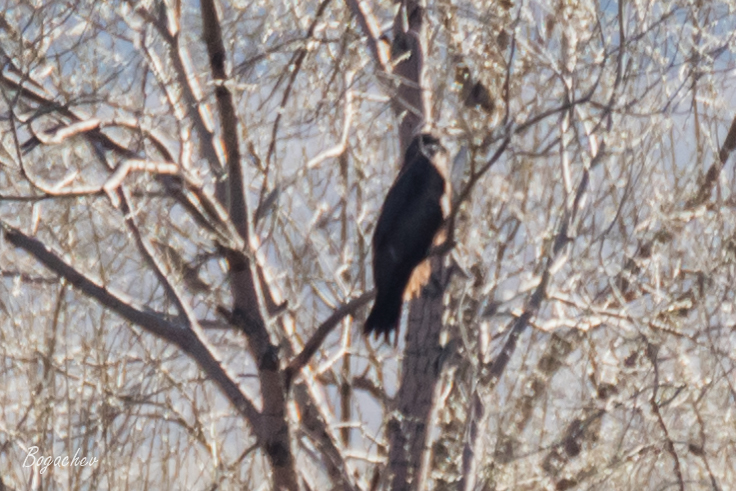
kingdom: Animalia
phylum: Chordata
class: Aves
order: Accipitriformes
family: Accipitridae
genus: Milvus
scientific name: Milvus migrans
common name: Black kite
